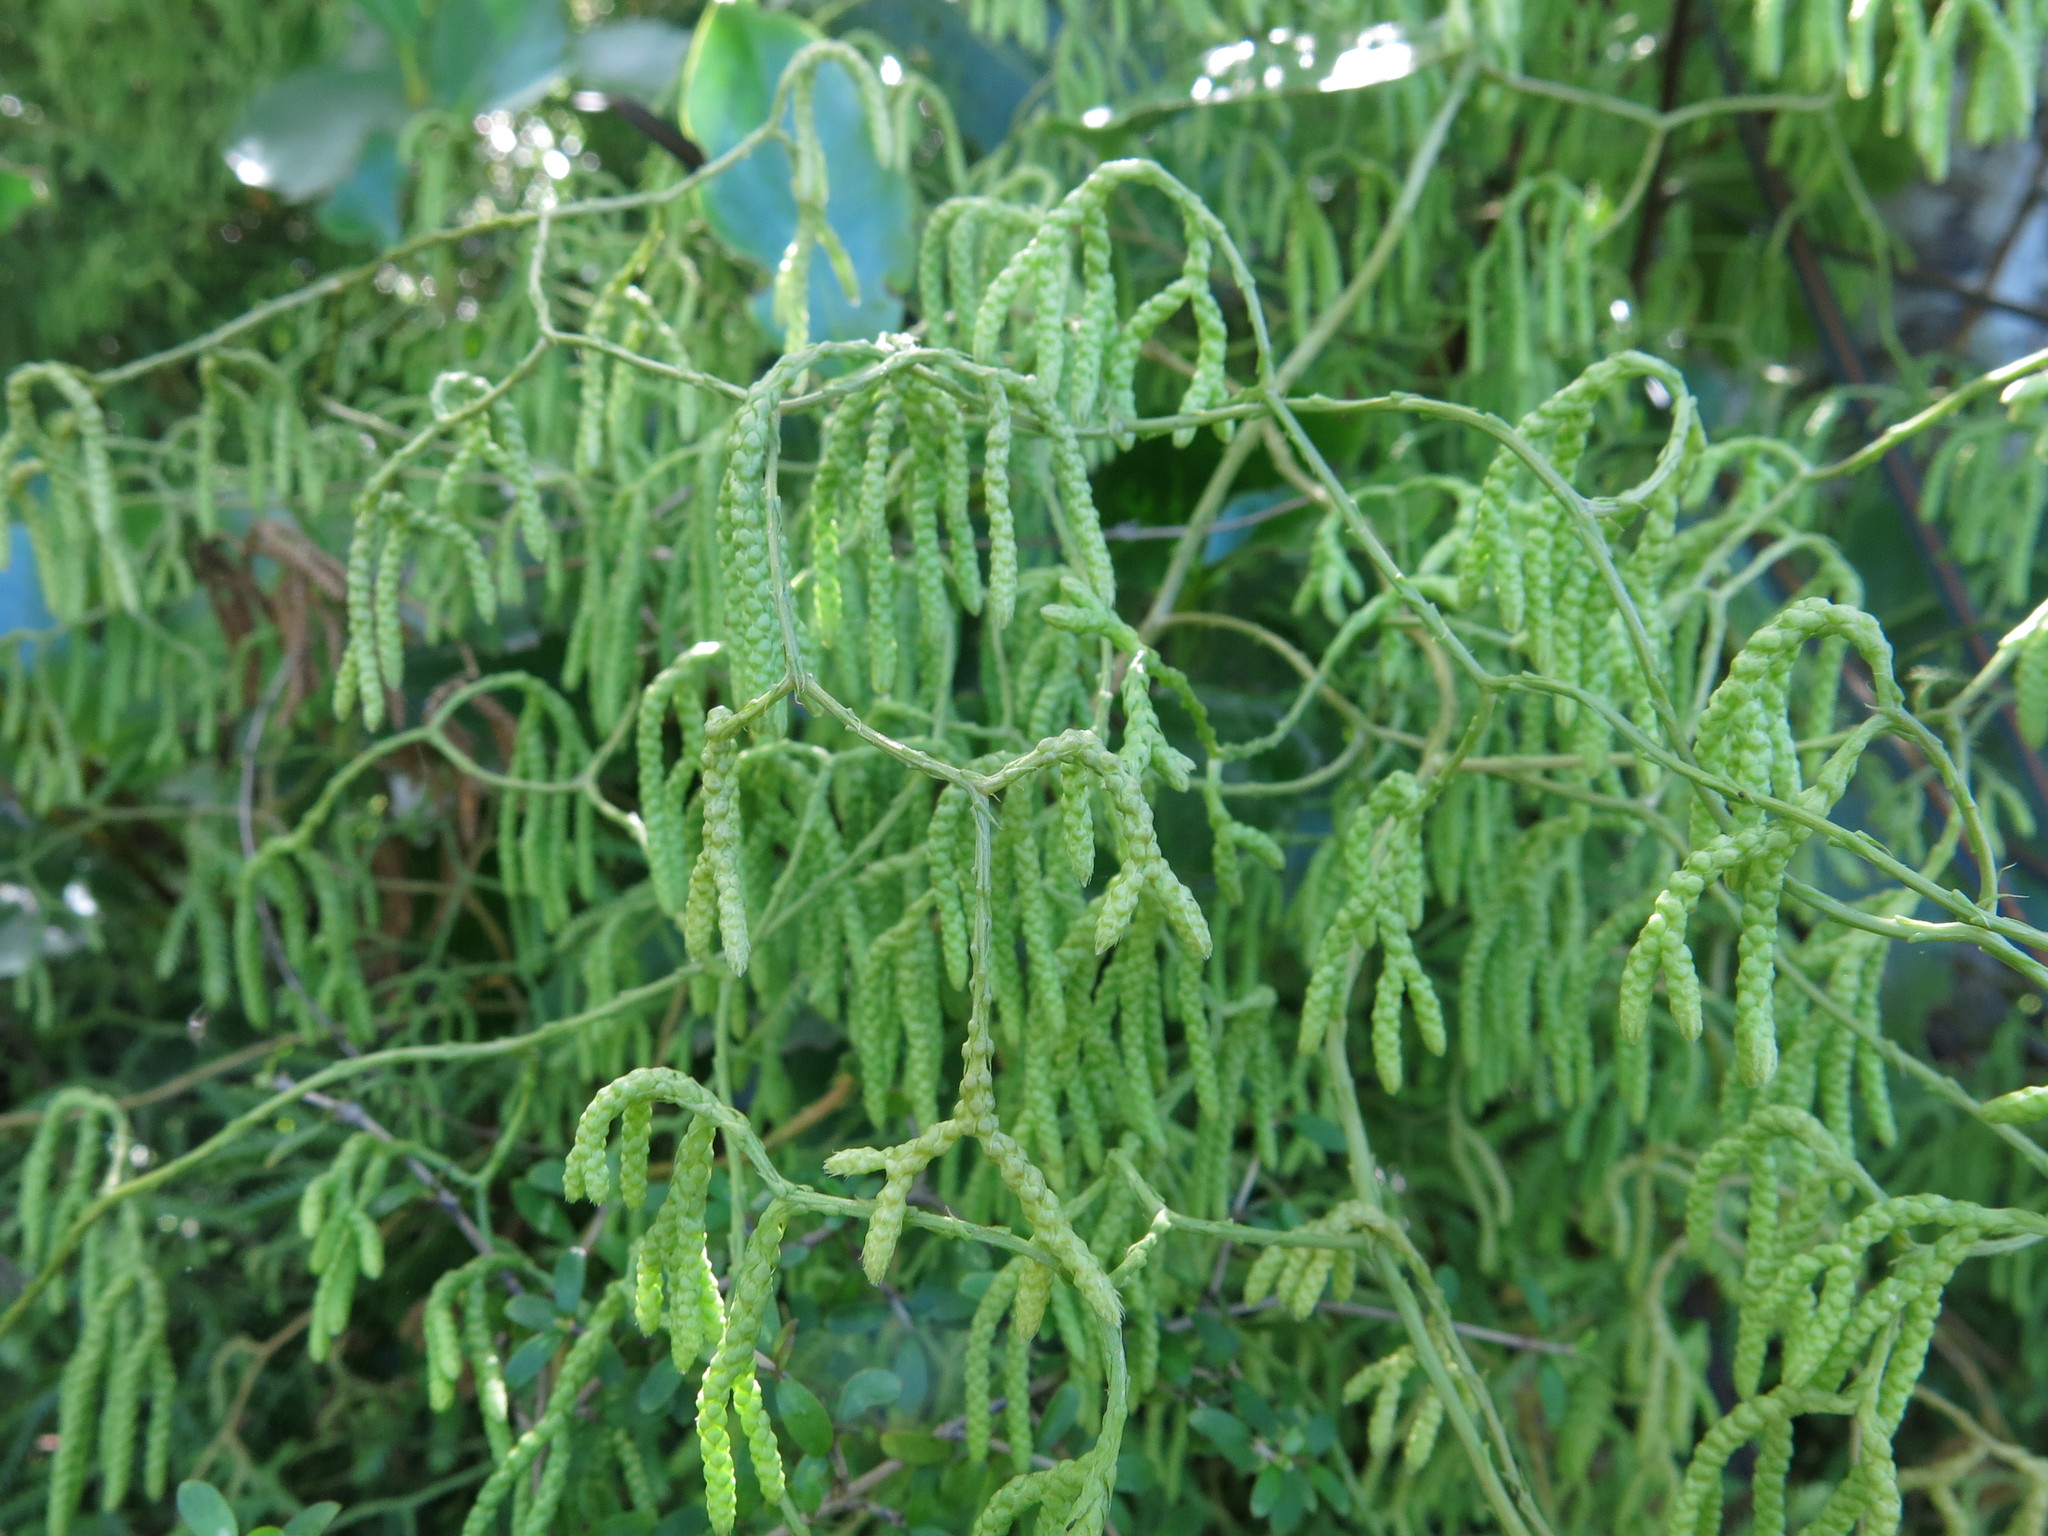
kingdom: Plantae
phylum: Tracheophyta
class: Lycopodiopsida
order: Lycopodiales
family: Lycopodiaceae
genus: Lycopodium
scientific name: Lycopodium volubile
